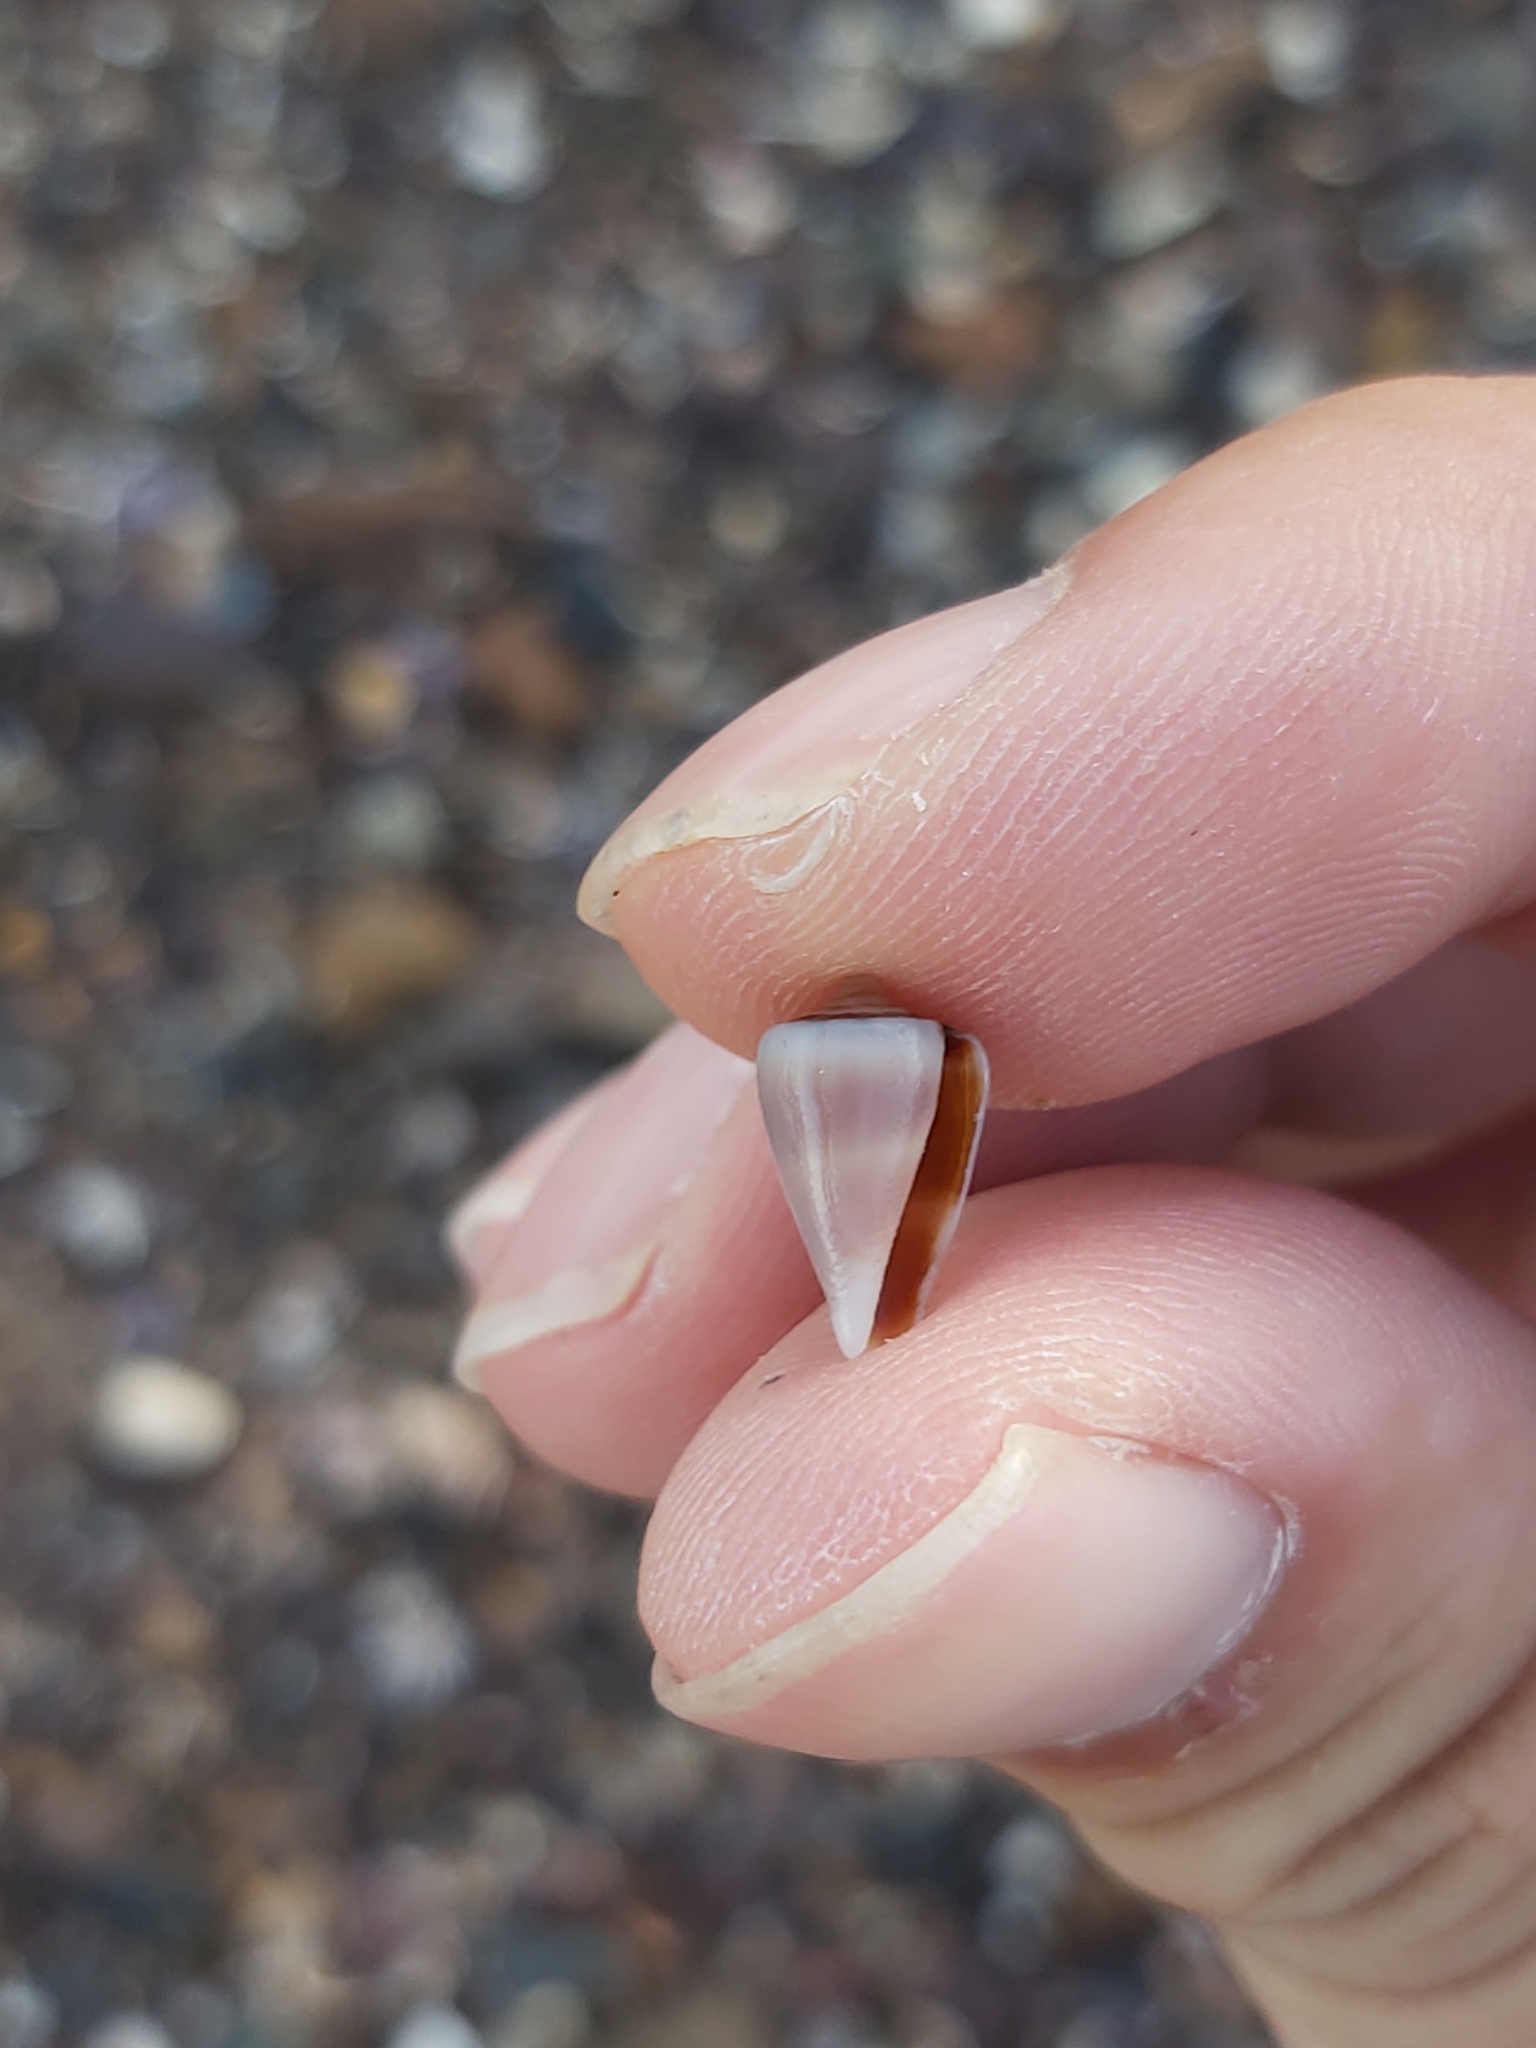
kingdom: Animalia
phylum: Mollusca
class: Gastropoda
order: Neogastropoda
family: Conidae
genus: Conus
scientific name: Conus papilliferus
